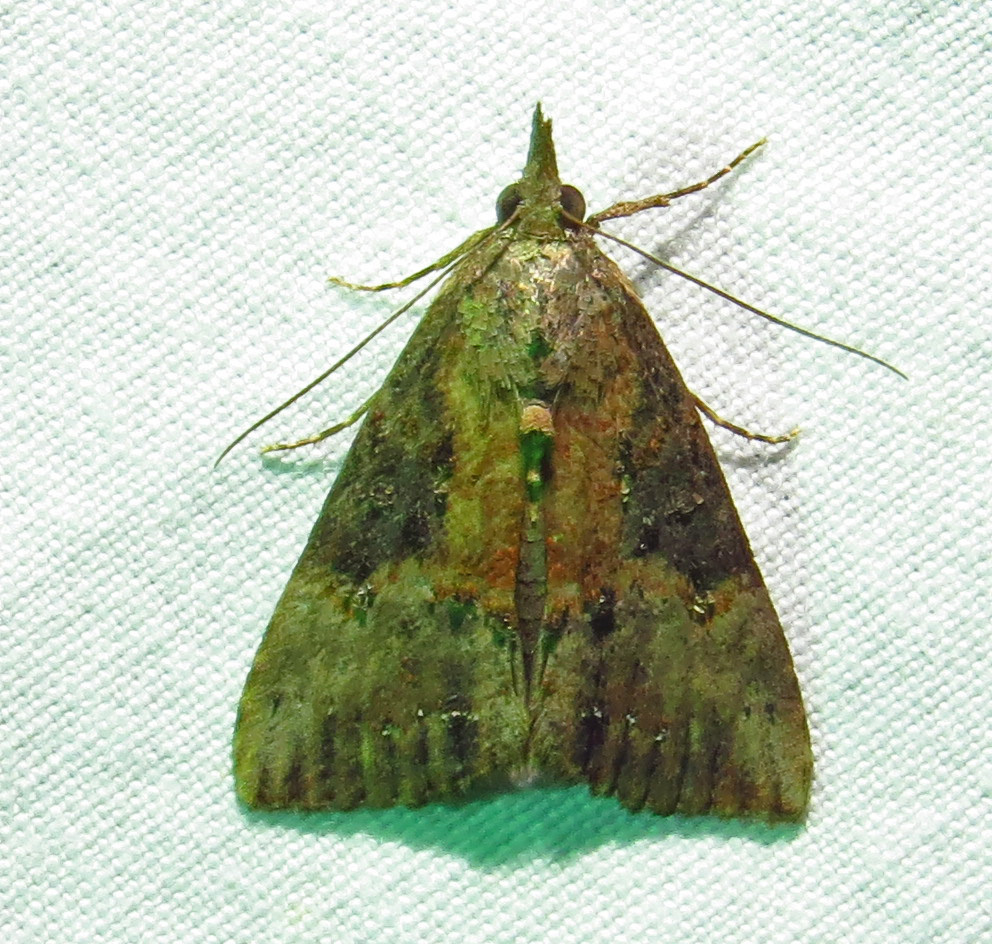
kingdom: Animalia
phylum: Arthropoda
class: Insecta
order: Lepidoptera
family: Erebidae
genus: Hypena
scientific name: Hypena scabra
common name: Green cloverworm
